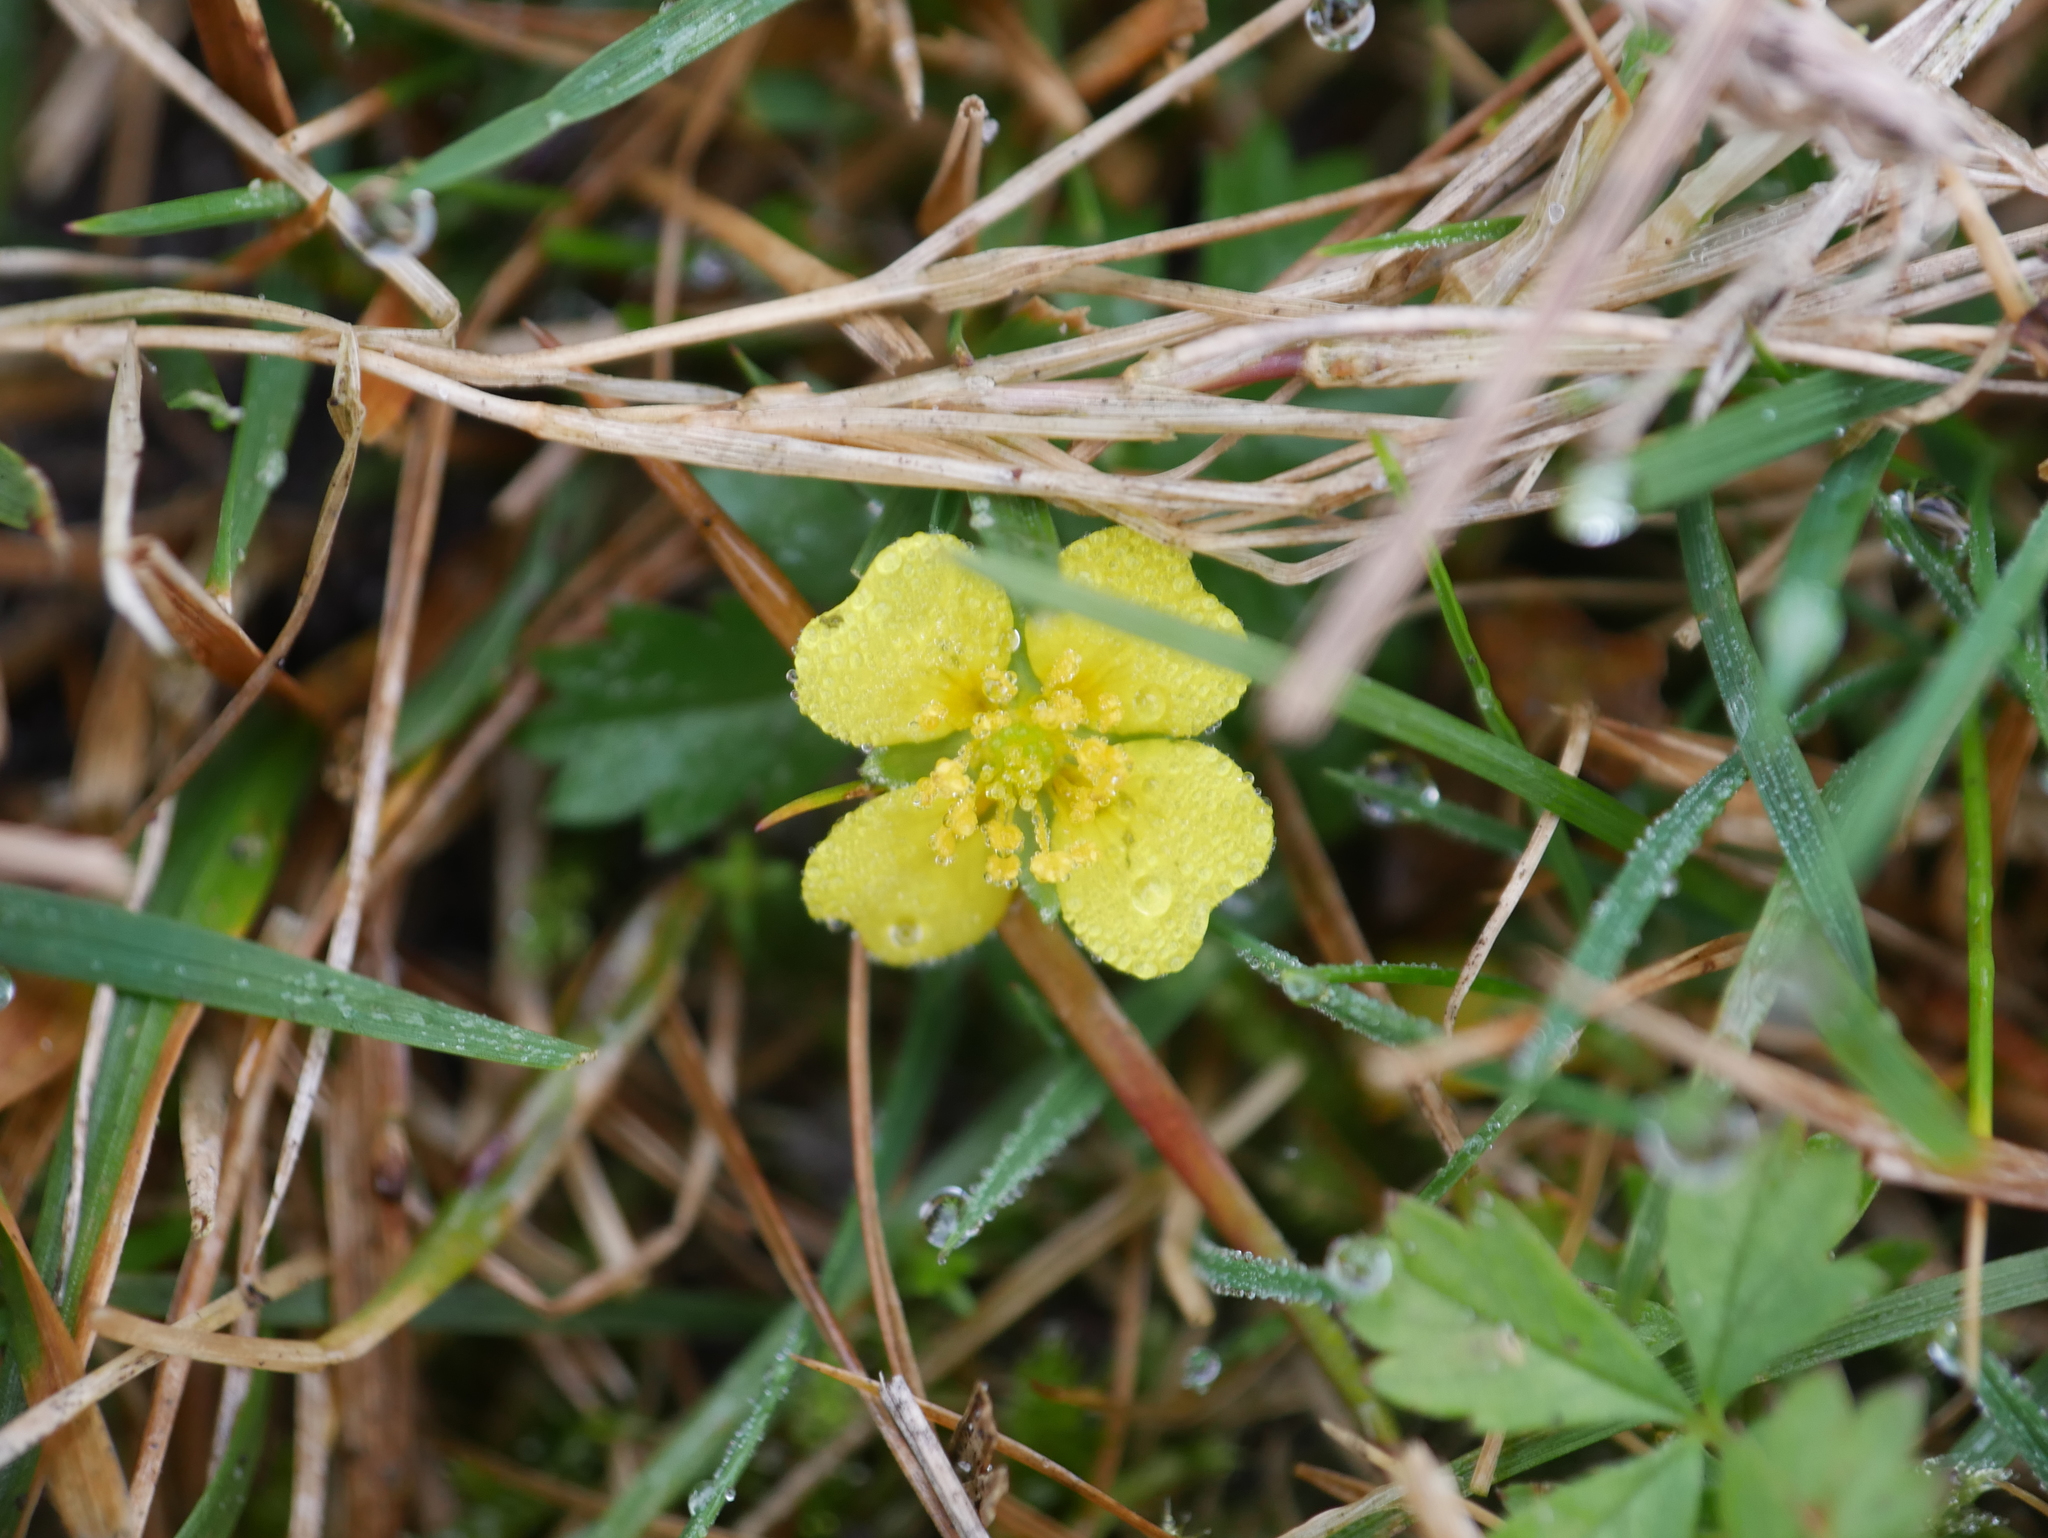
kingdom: Plantae
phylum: Tracheophyta
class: Magnoliopsida
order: Rosales
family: Rosaceae
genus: Potentilla
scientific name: Potentilla erecta
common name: Tormentil
